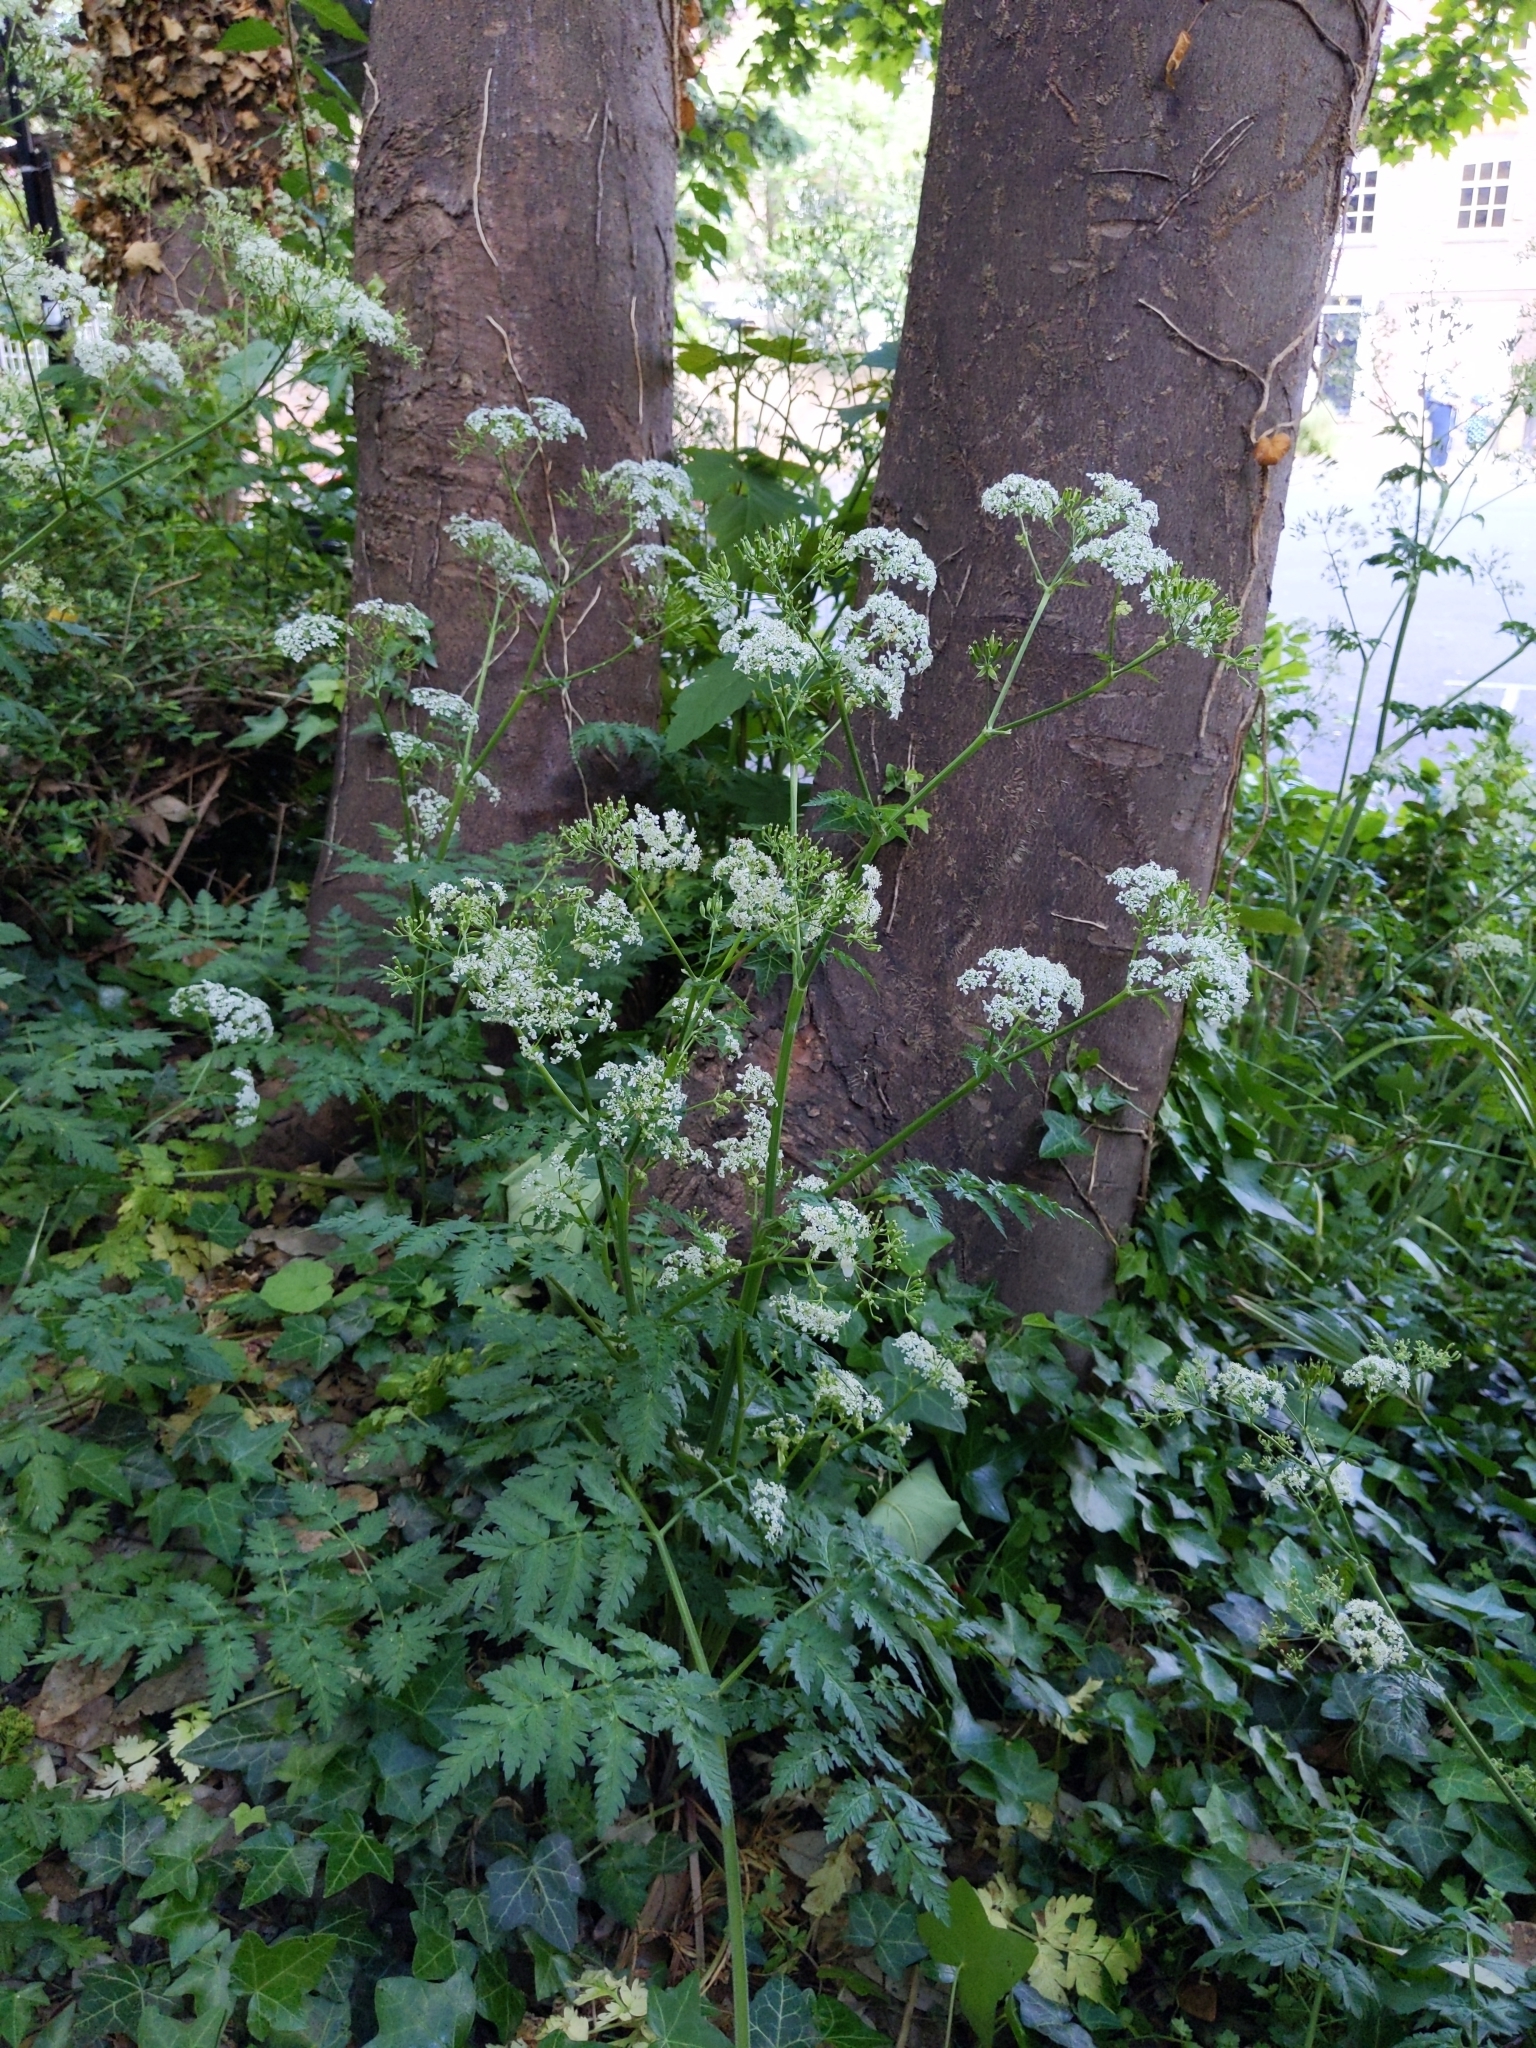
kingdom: Plantae
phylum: Tracheophyta
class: Magnoliopsida
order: Apiales
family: Apiaceae
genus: Anthriscus
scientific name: Anthriscus sylvestris
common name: Cow parsley
